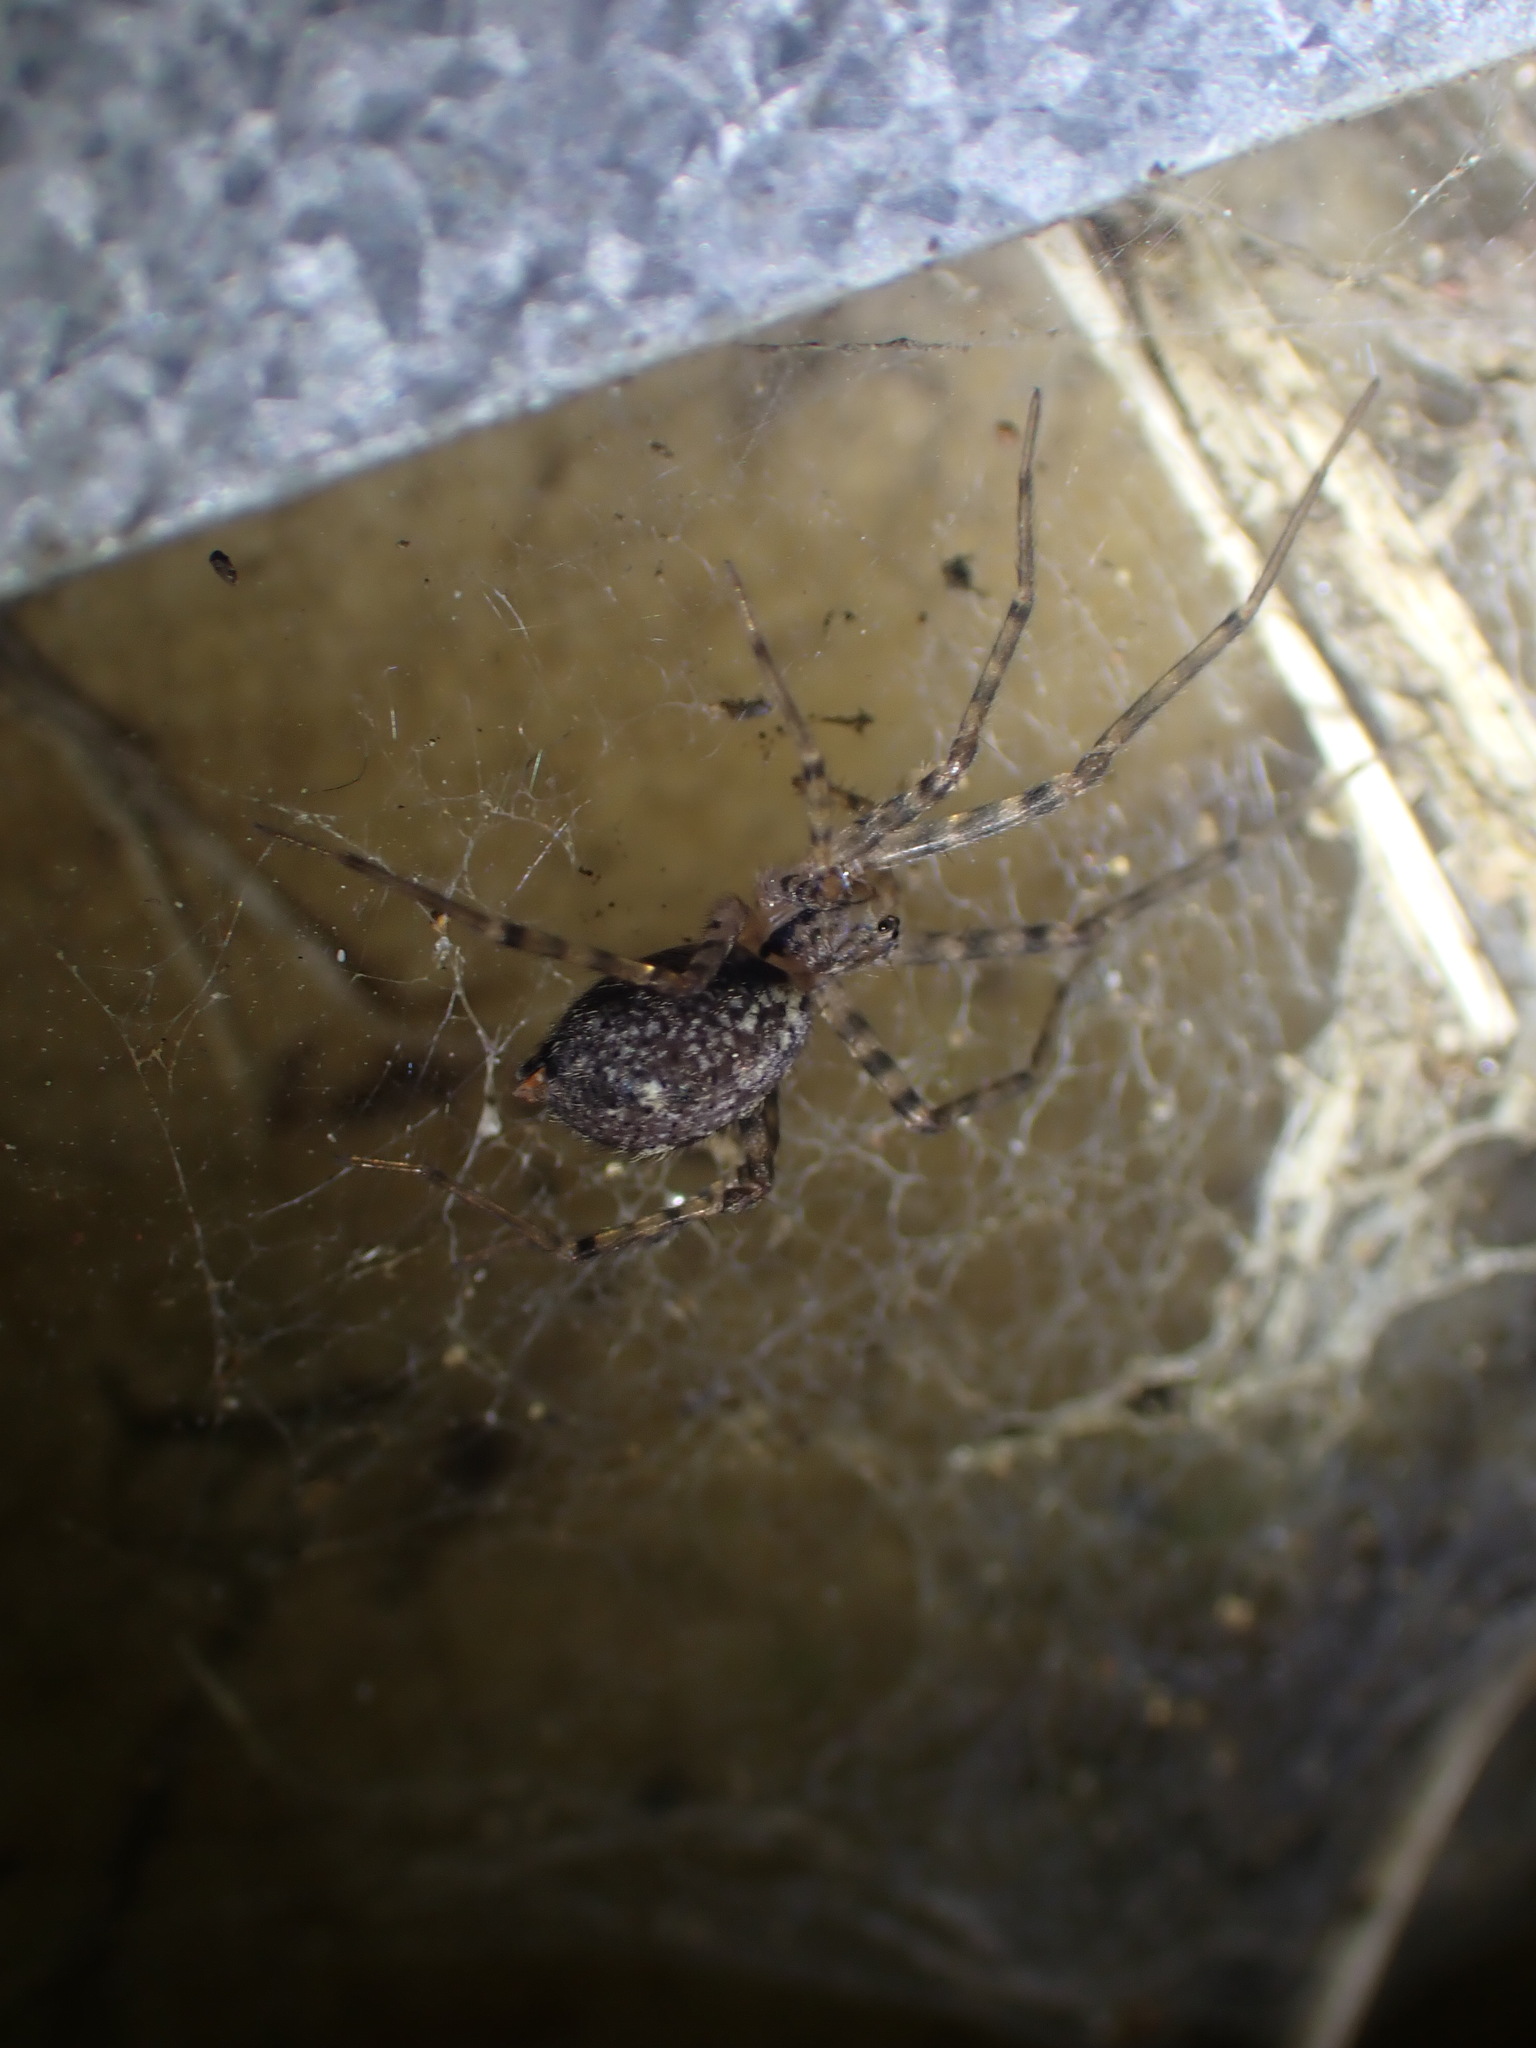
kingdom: Animalia
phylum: Arthropoda
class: Arachnida
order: Araneae
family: Stiphidiidae
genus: Stiphidion
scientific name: Stiphidion facetum
